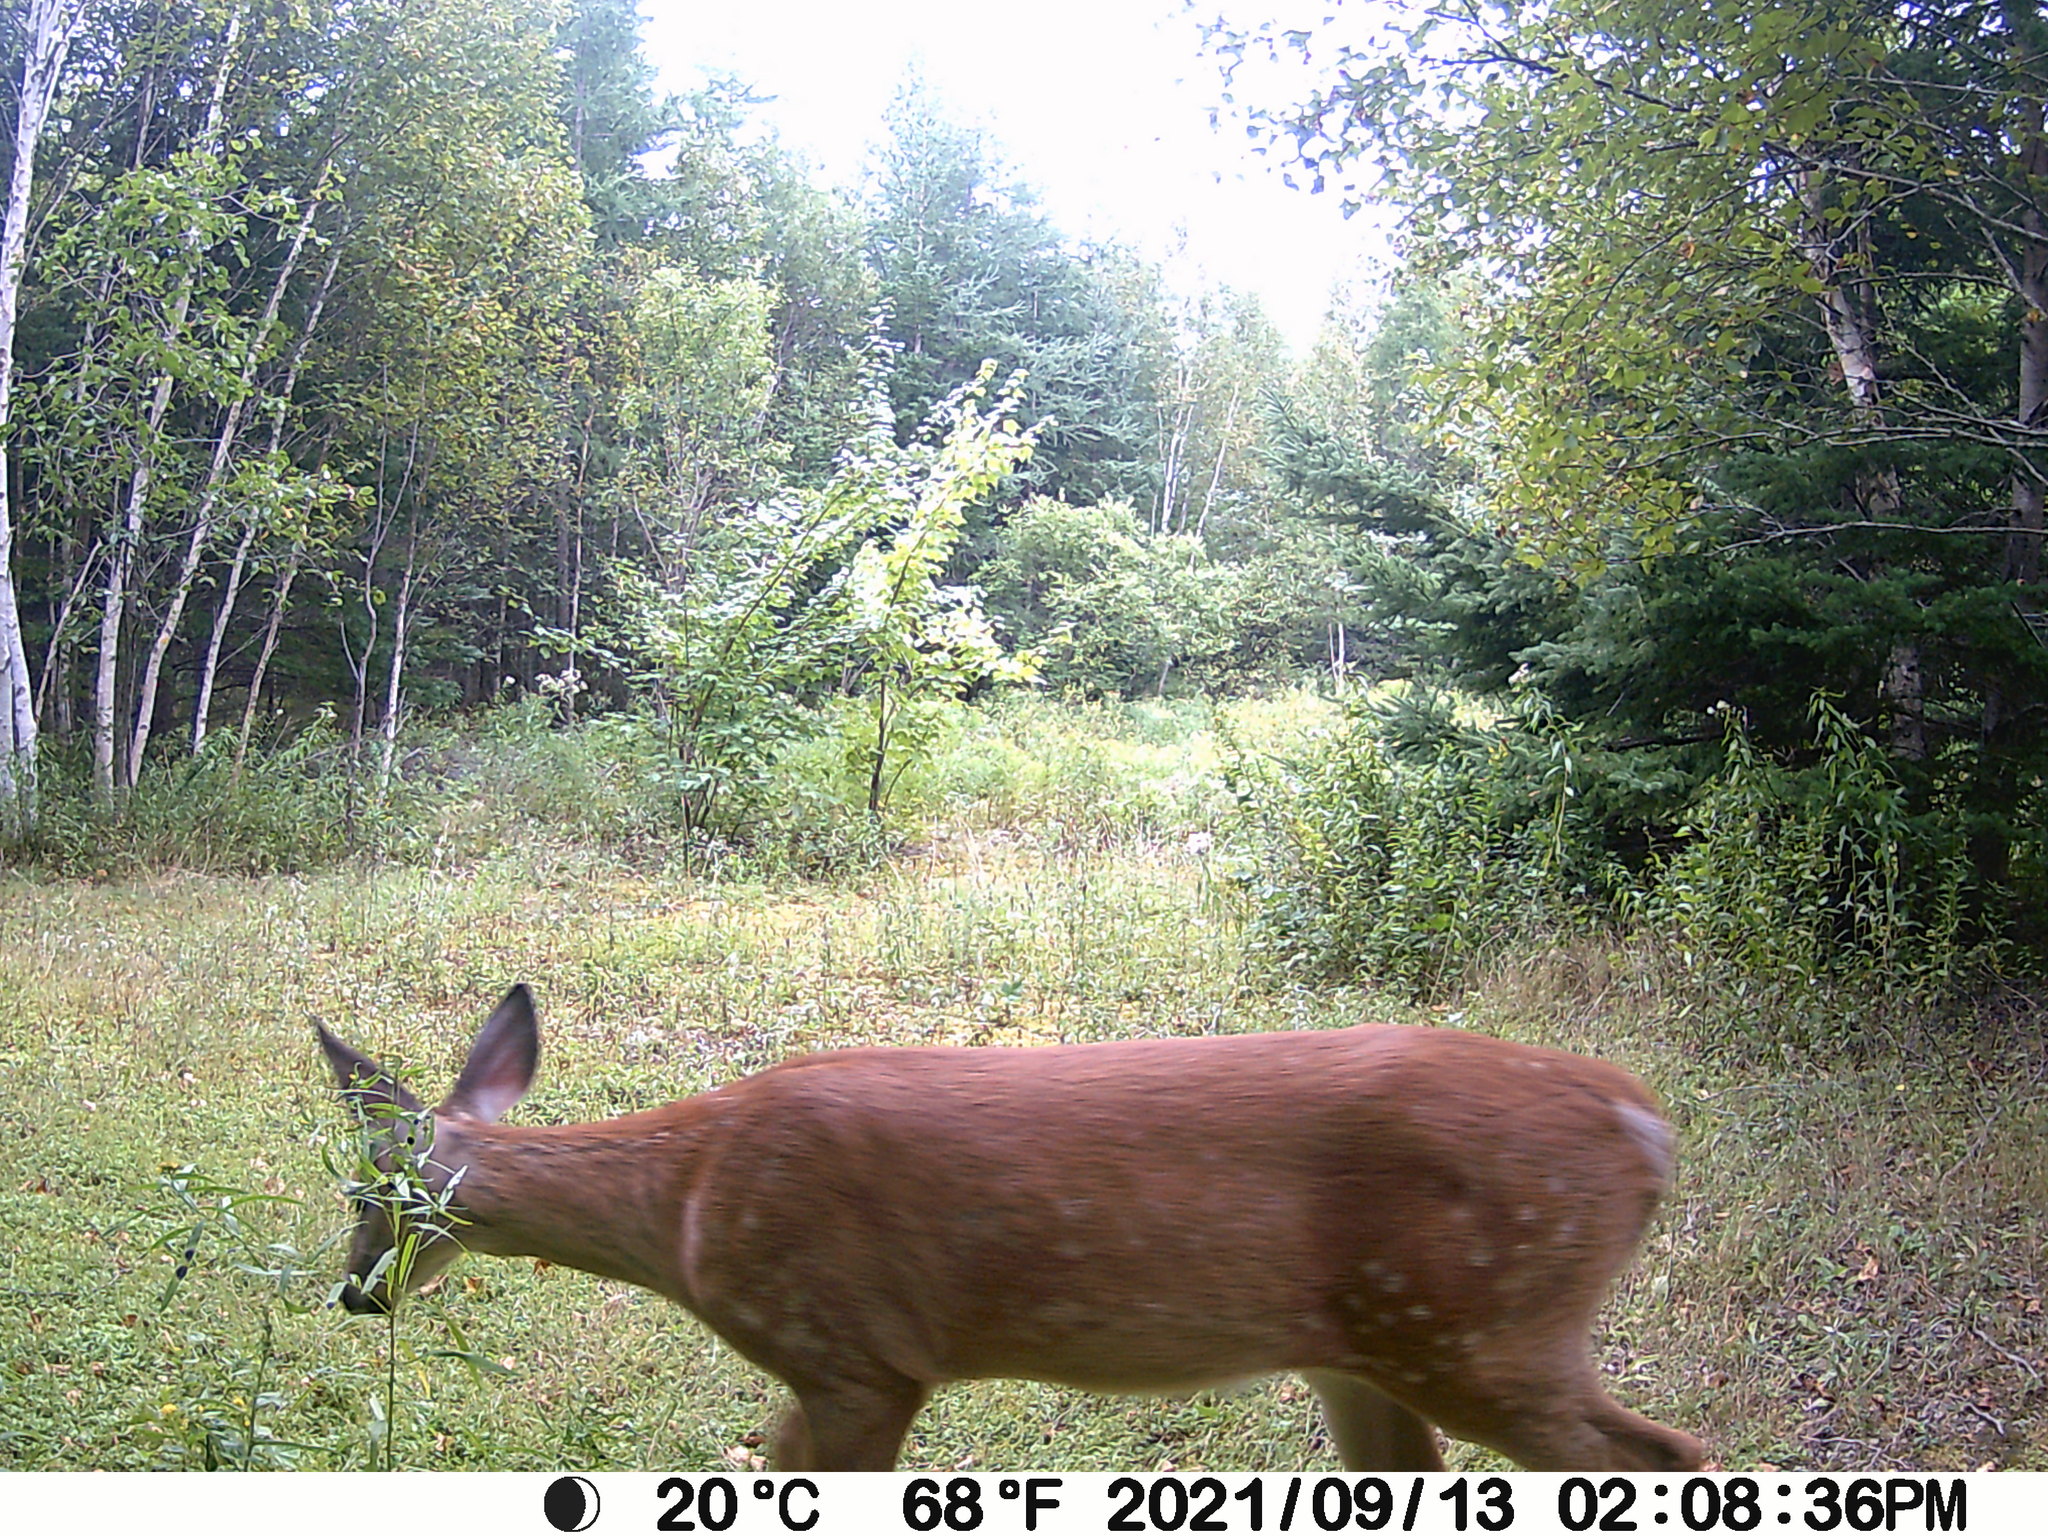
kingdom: Animalia
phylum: Chordata
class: Mammalia
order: Artiodactyla
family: Cervidae
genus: Odocoileus
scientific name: Odocoileus virginianus
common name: White-tailed deer
